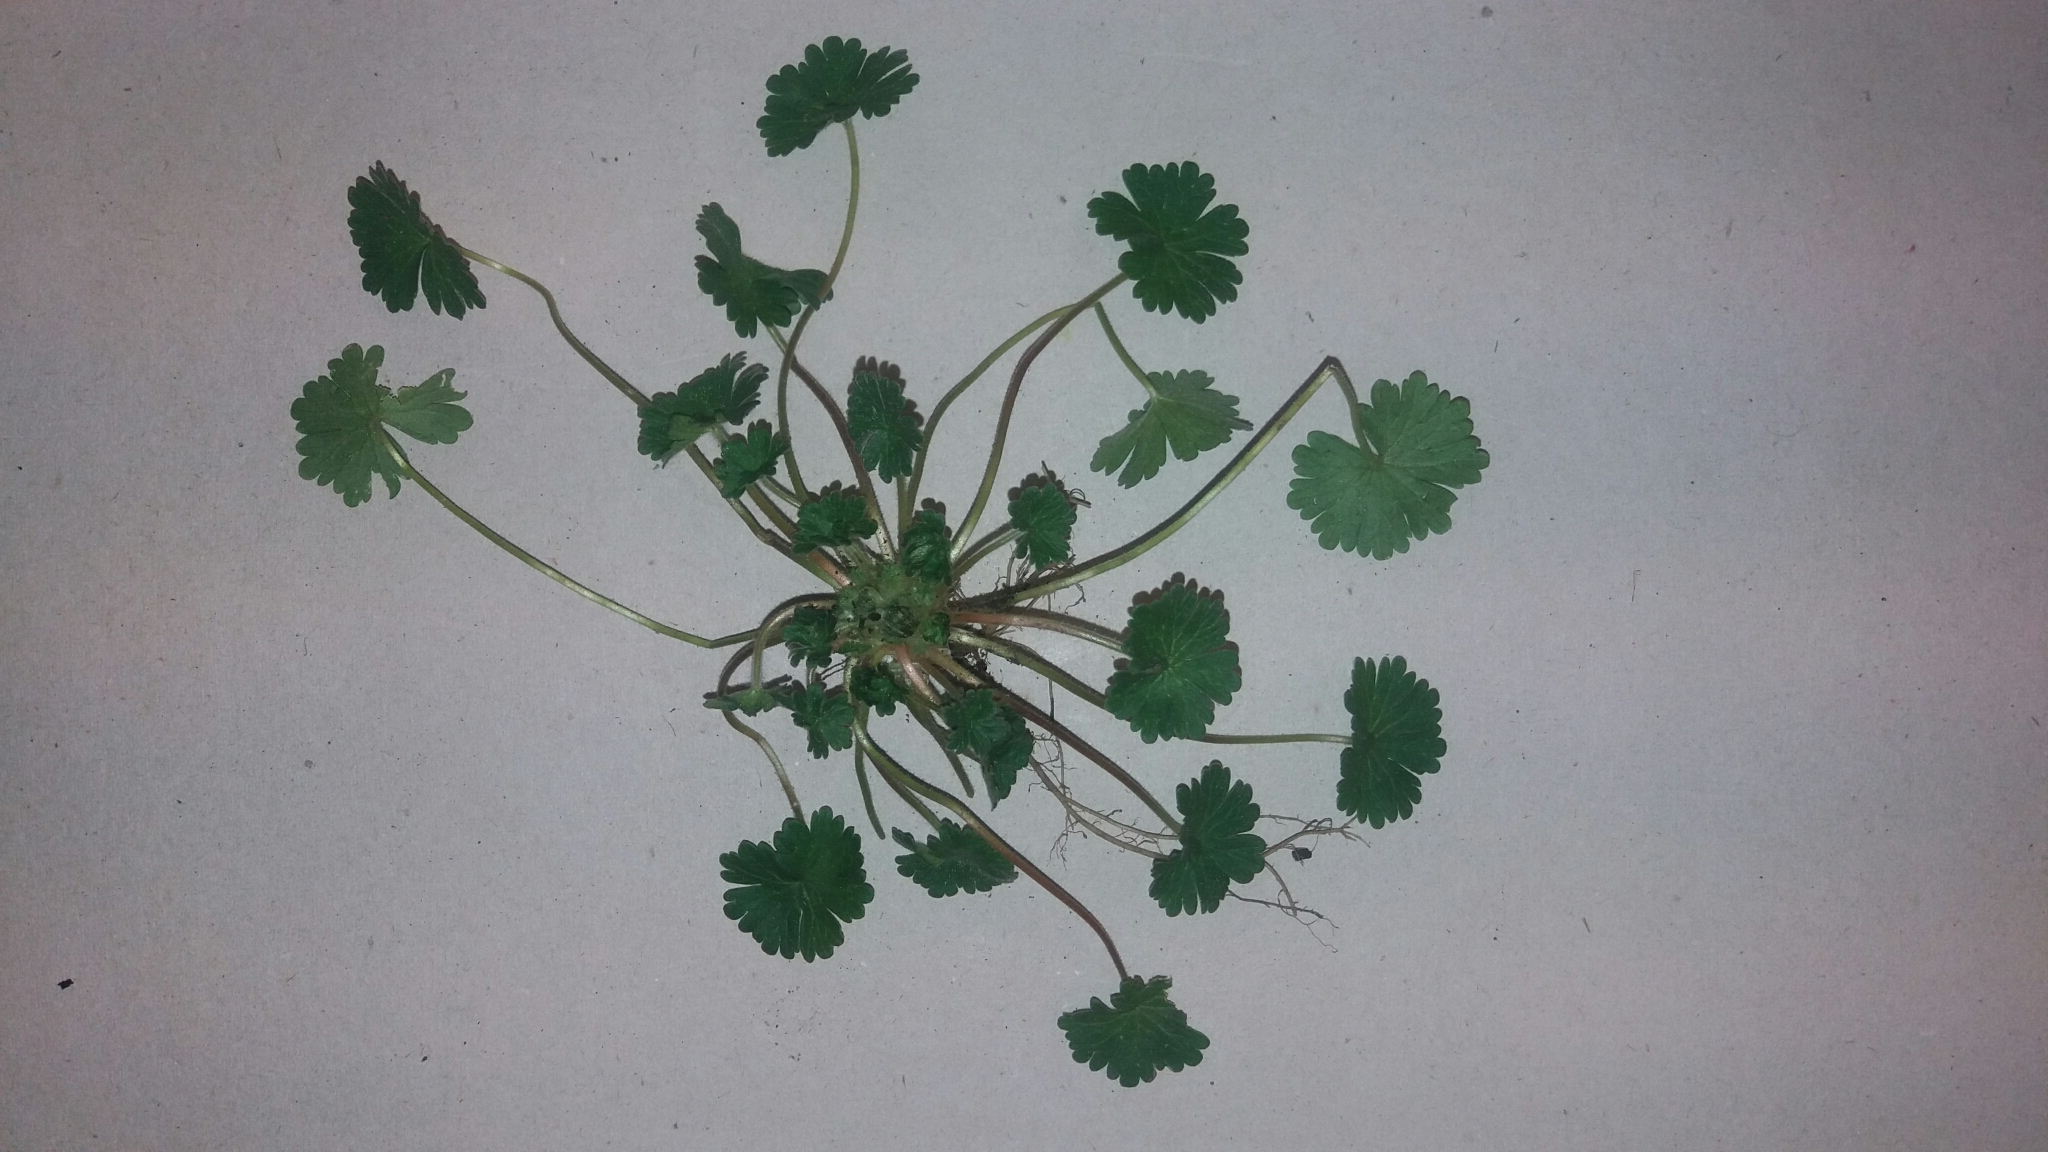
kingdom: Plantae
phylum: Tracheophyta
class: Magnoliopsida
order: Geraniales
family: Geraniaceae
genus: Geranium
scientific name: Geranium molle
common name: Dove's-foot crane's-bill
